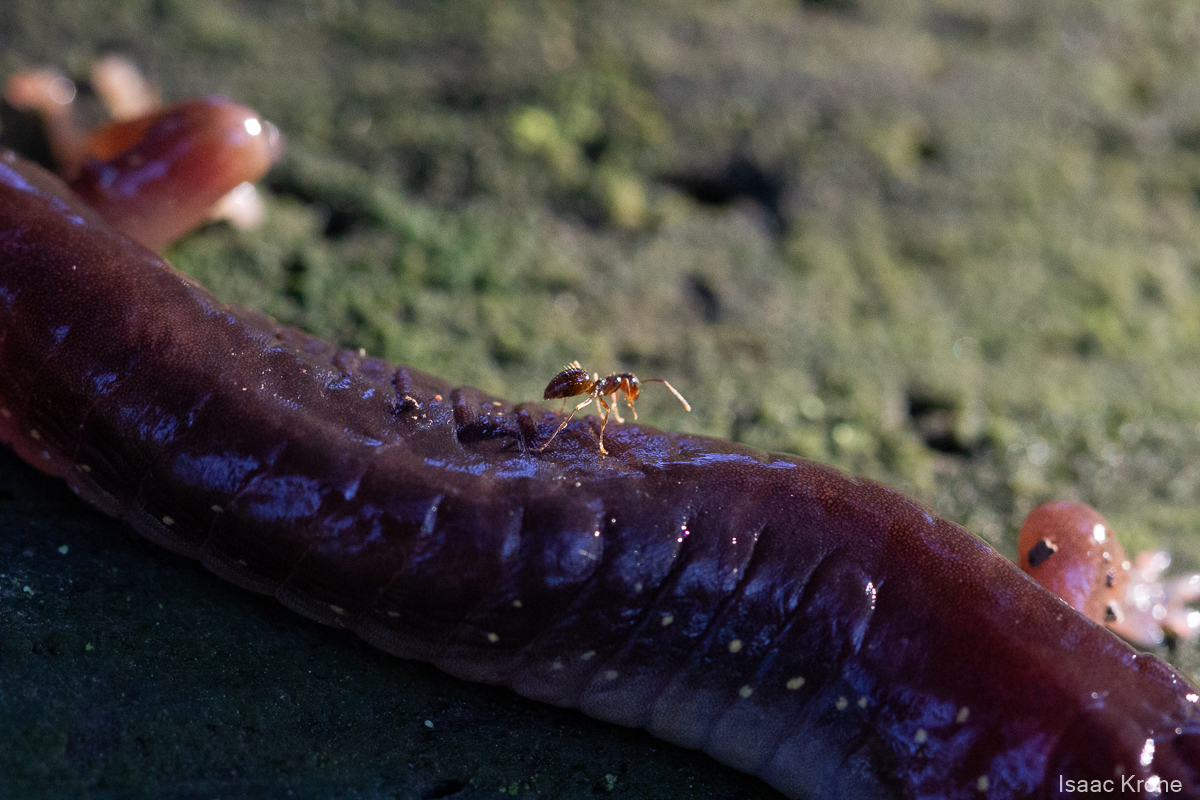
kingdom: Animalia
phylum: Arthropoda
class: Insecta
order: Hymenoptera
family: Formicidae
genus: Prenolepis
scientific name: Prenolepis imparis
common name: Small honey ant
